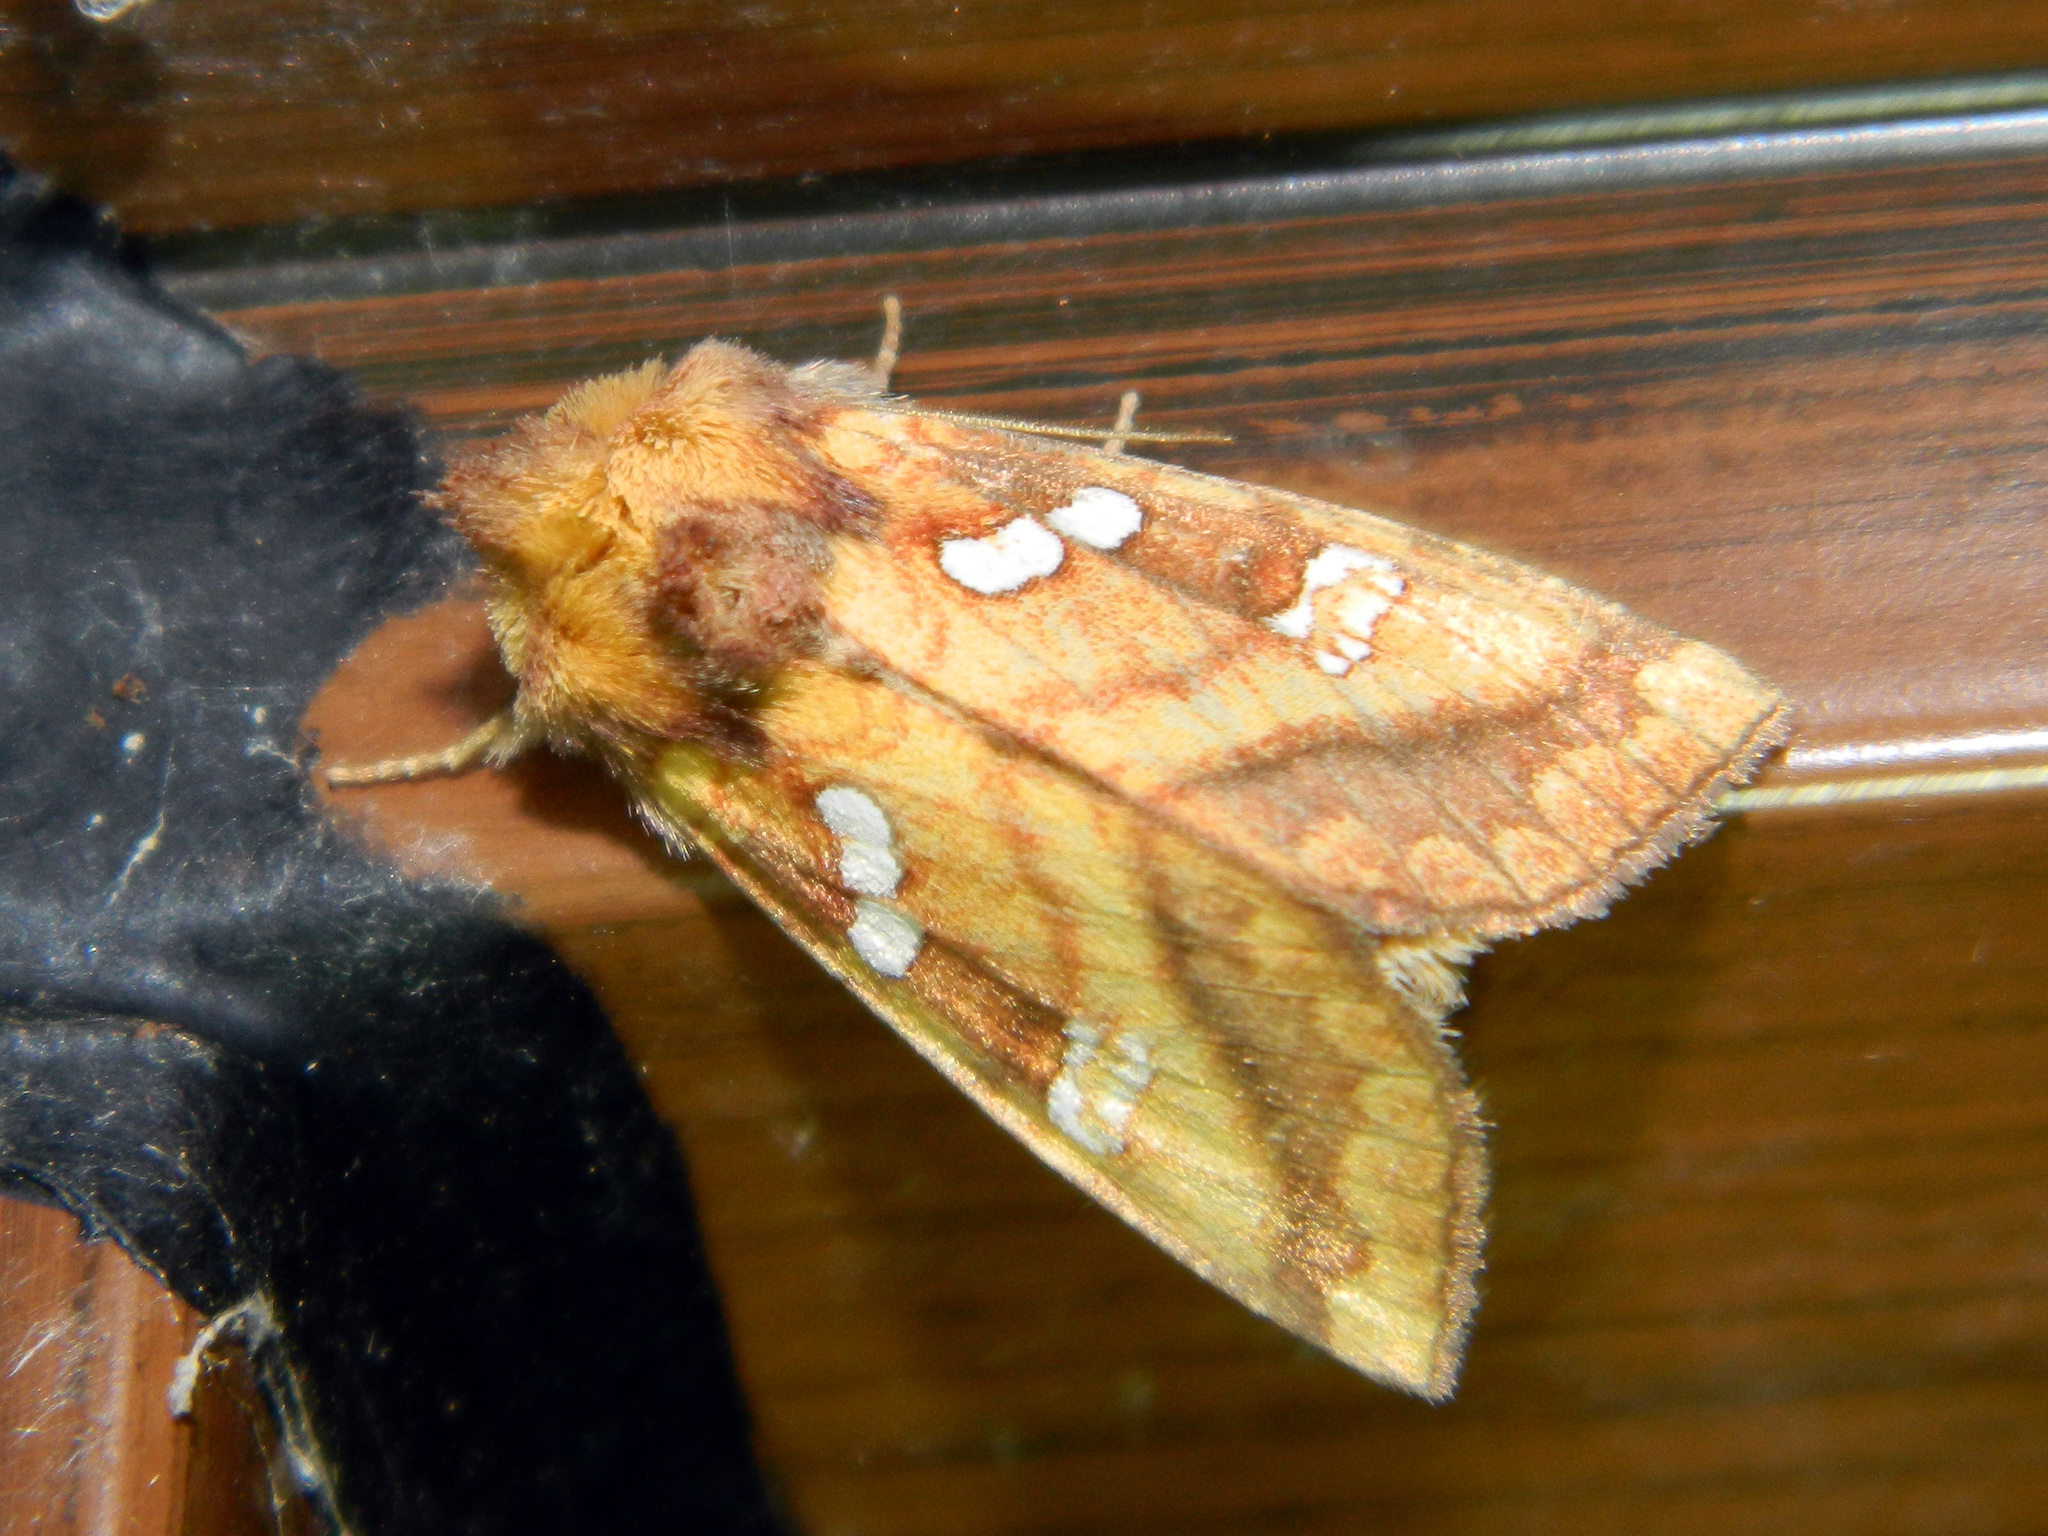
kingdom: Animalia
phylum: Arthropoda
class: Insecta
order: Lepidoptera
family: Noctuidae
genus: Papaipema
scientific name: Papaipema pterisii
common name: Bracken borer moth
